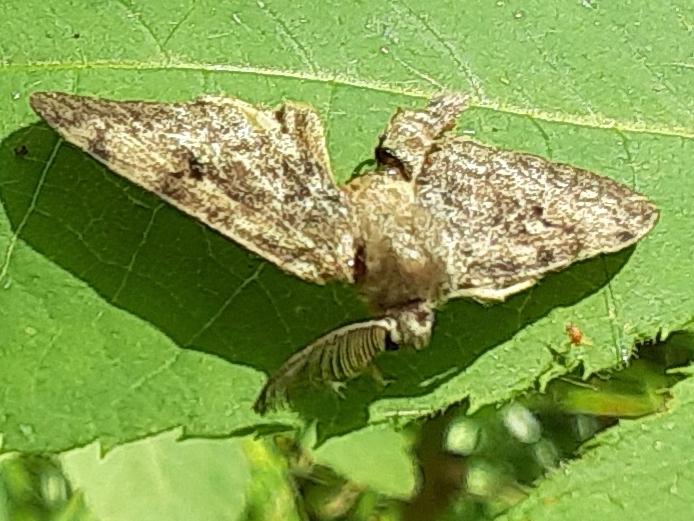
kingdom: Animalia
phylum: Arthropoda
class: Insecta
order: Lepidoptera
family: Erebidae
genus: Lymantria
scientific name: Lymantria dispar
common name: Gypsy moth
